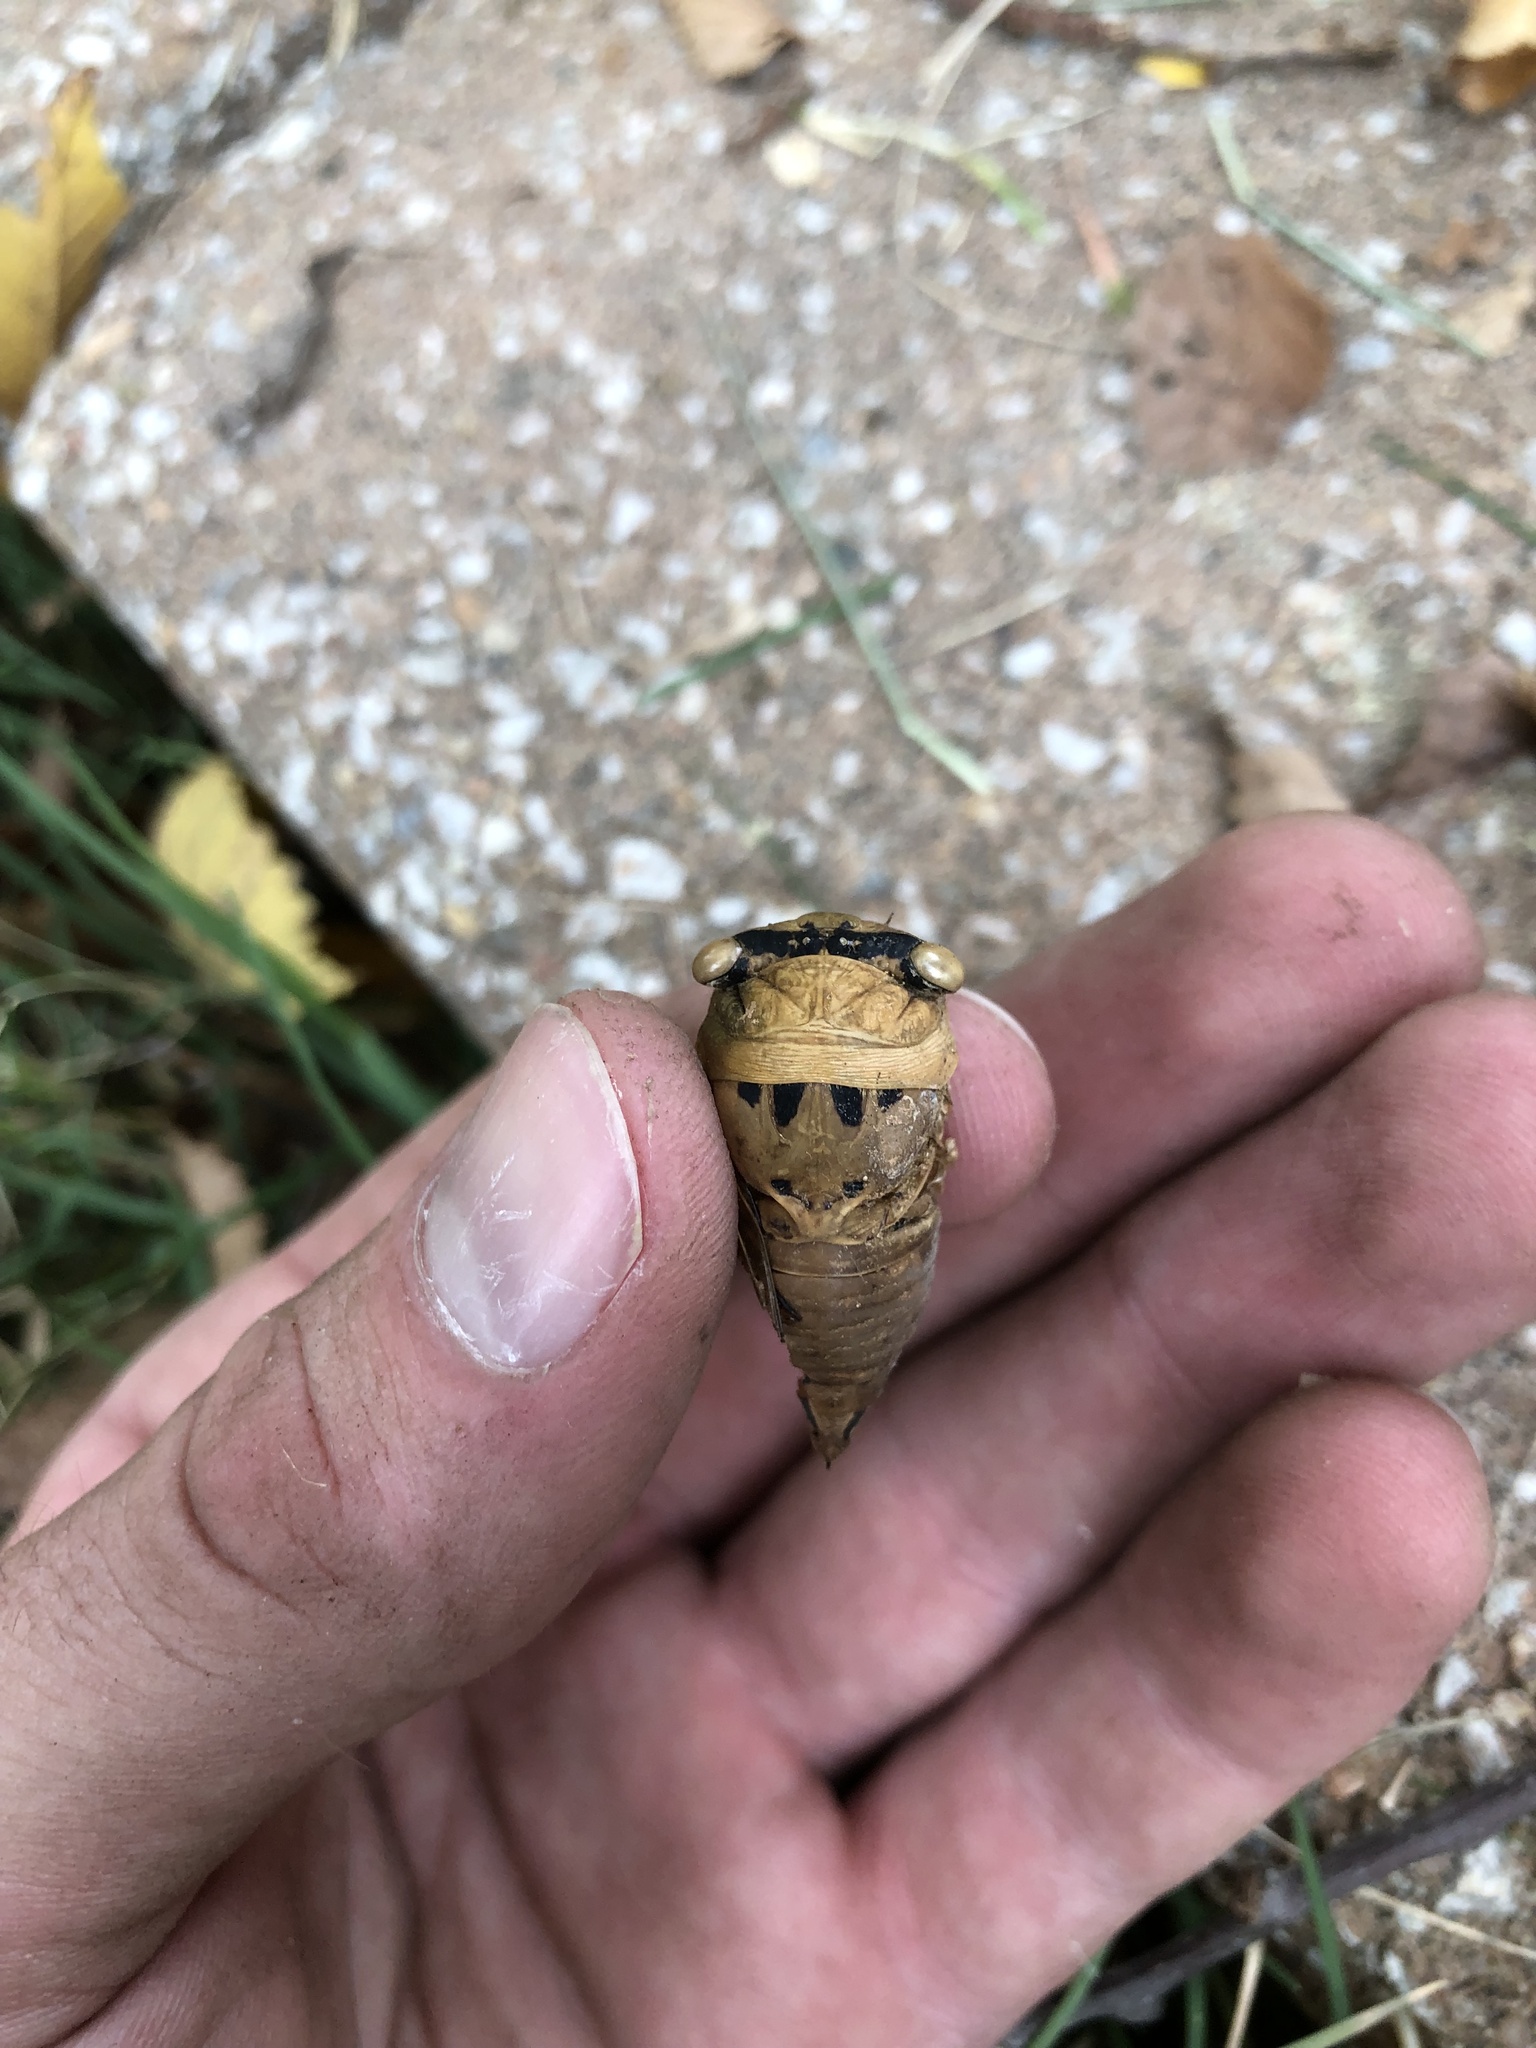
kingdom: Animalia
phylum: Arthropoda
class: Insecta
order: Hemiptera
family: Cicadidae
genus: Neotibicen
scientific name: Neotibicen superbus
